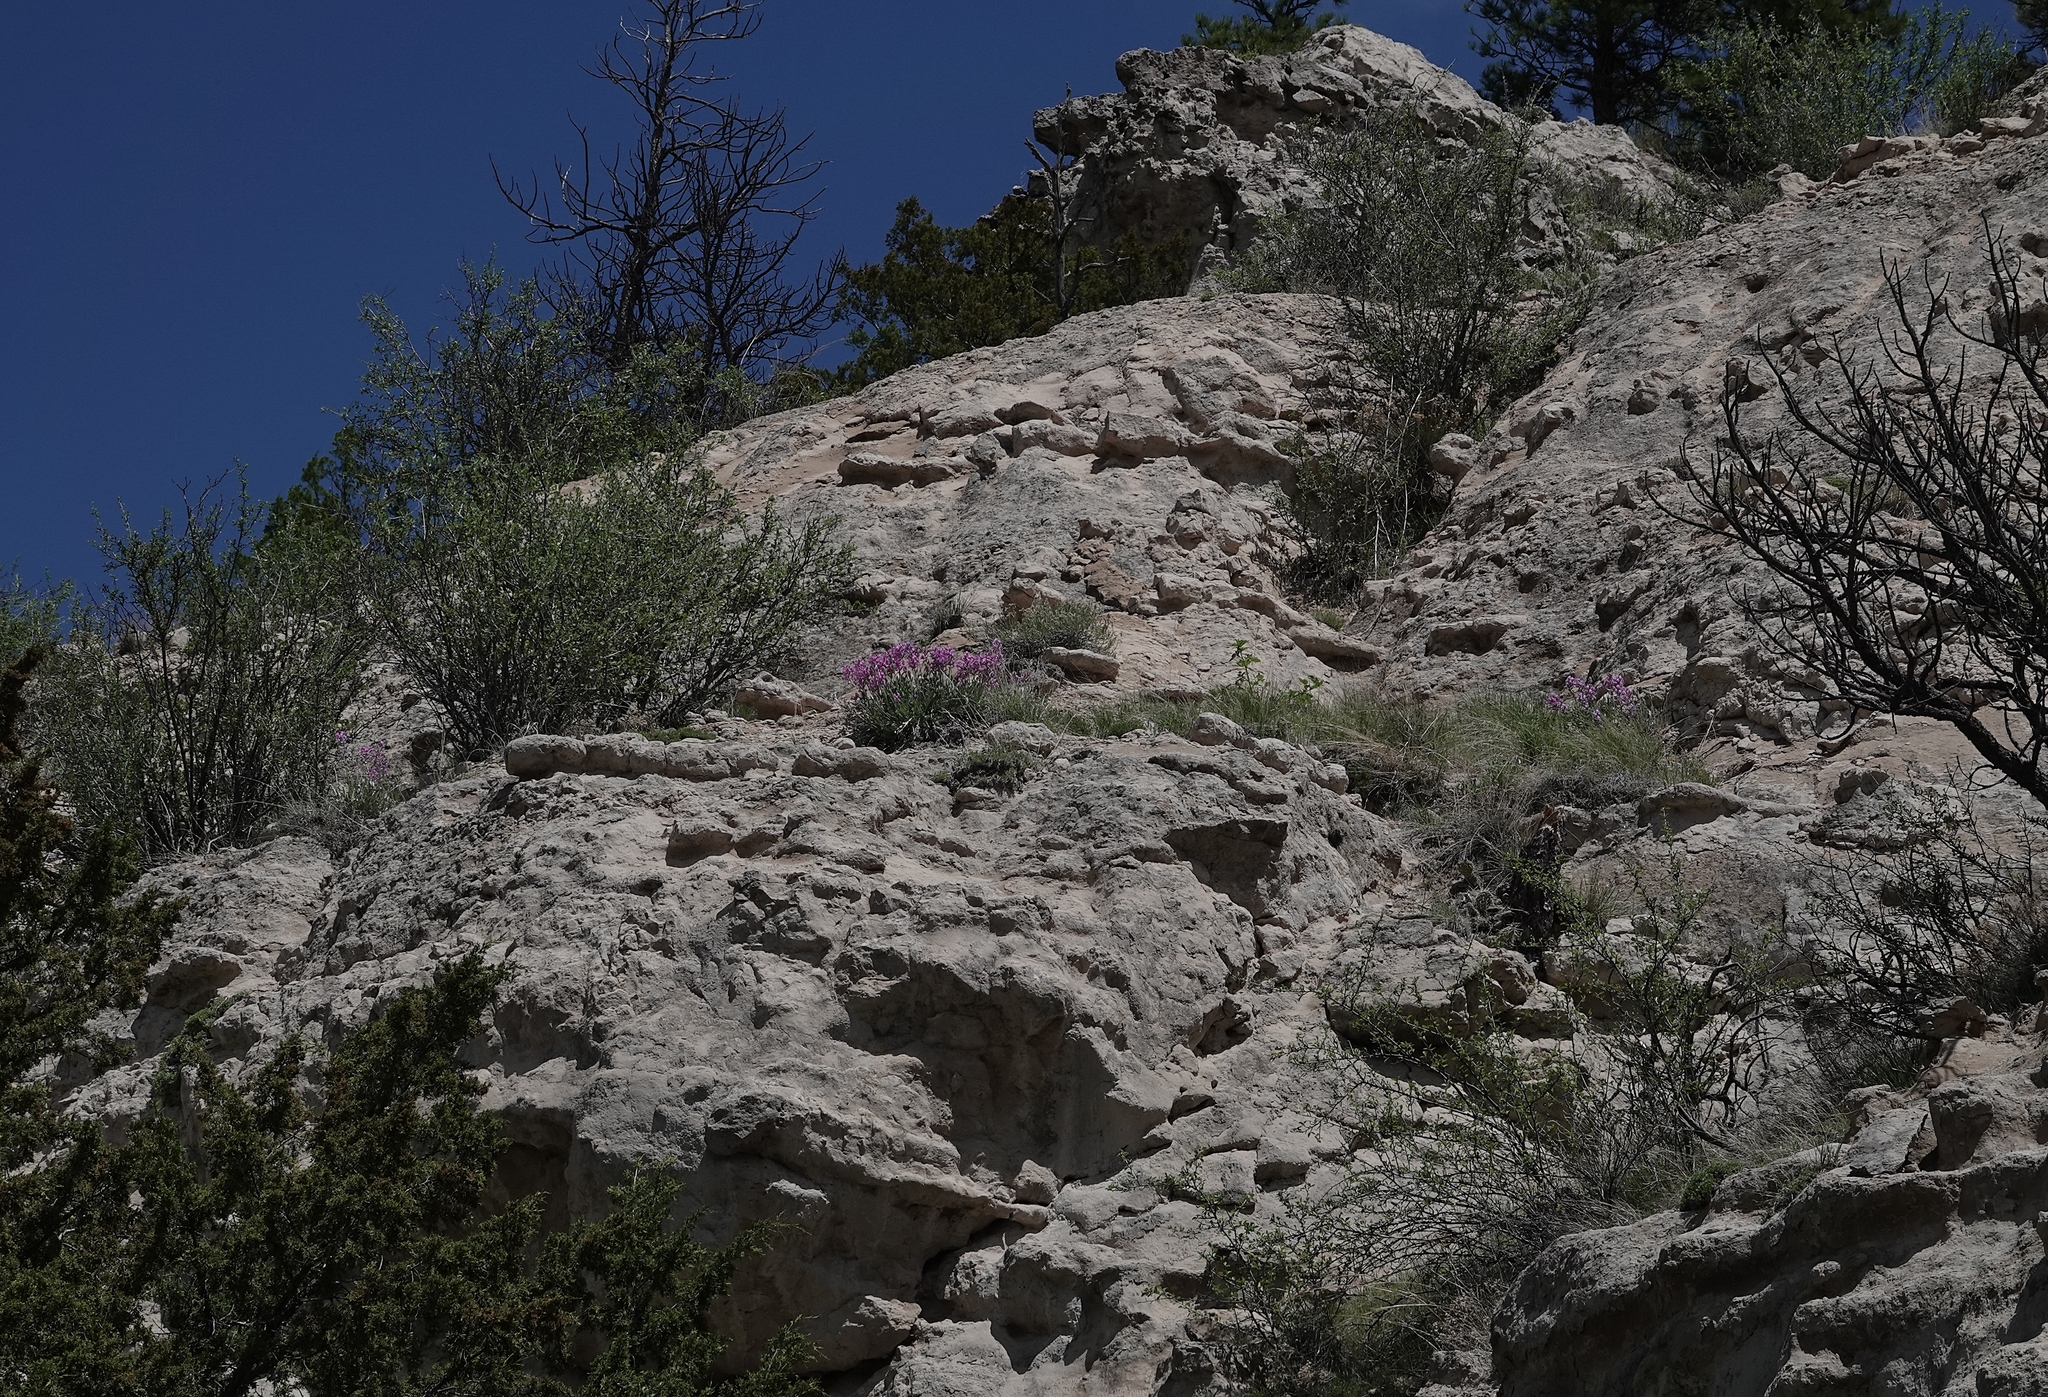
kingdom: Plantae
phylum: Tracheophyta
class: Magnoliopsida
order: Fabales
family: Fabaceae
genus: Oxytropis
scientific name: Oxytropis lambertii
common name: Purple locoweed
